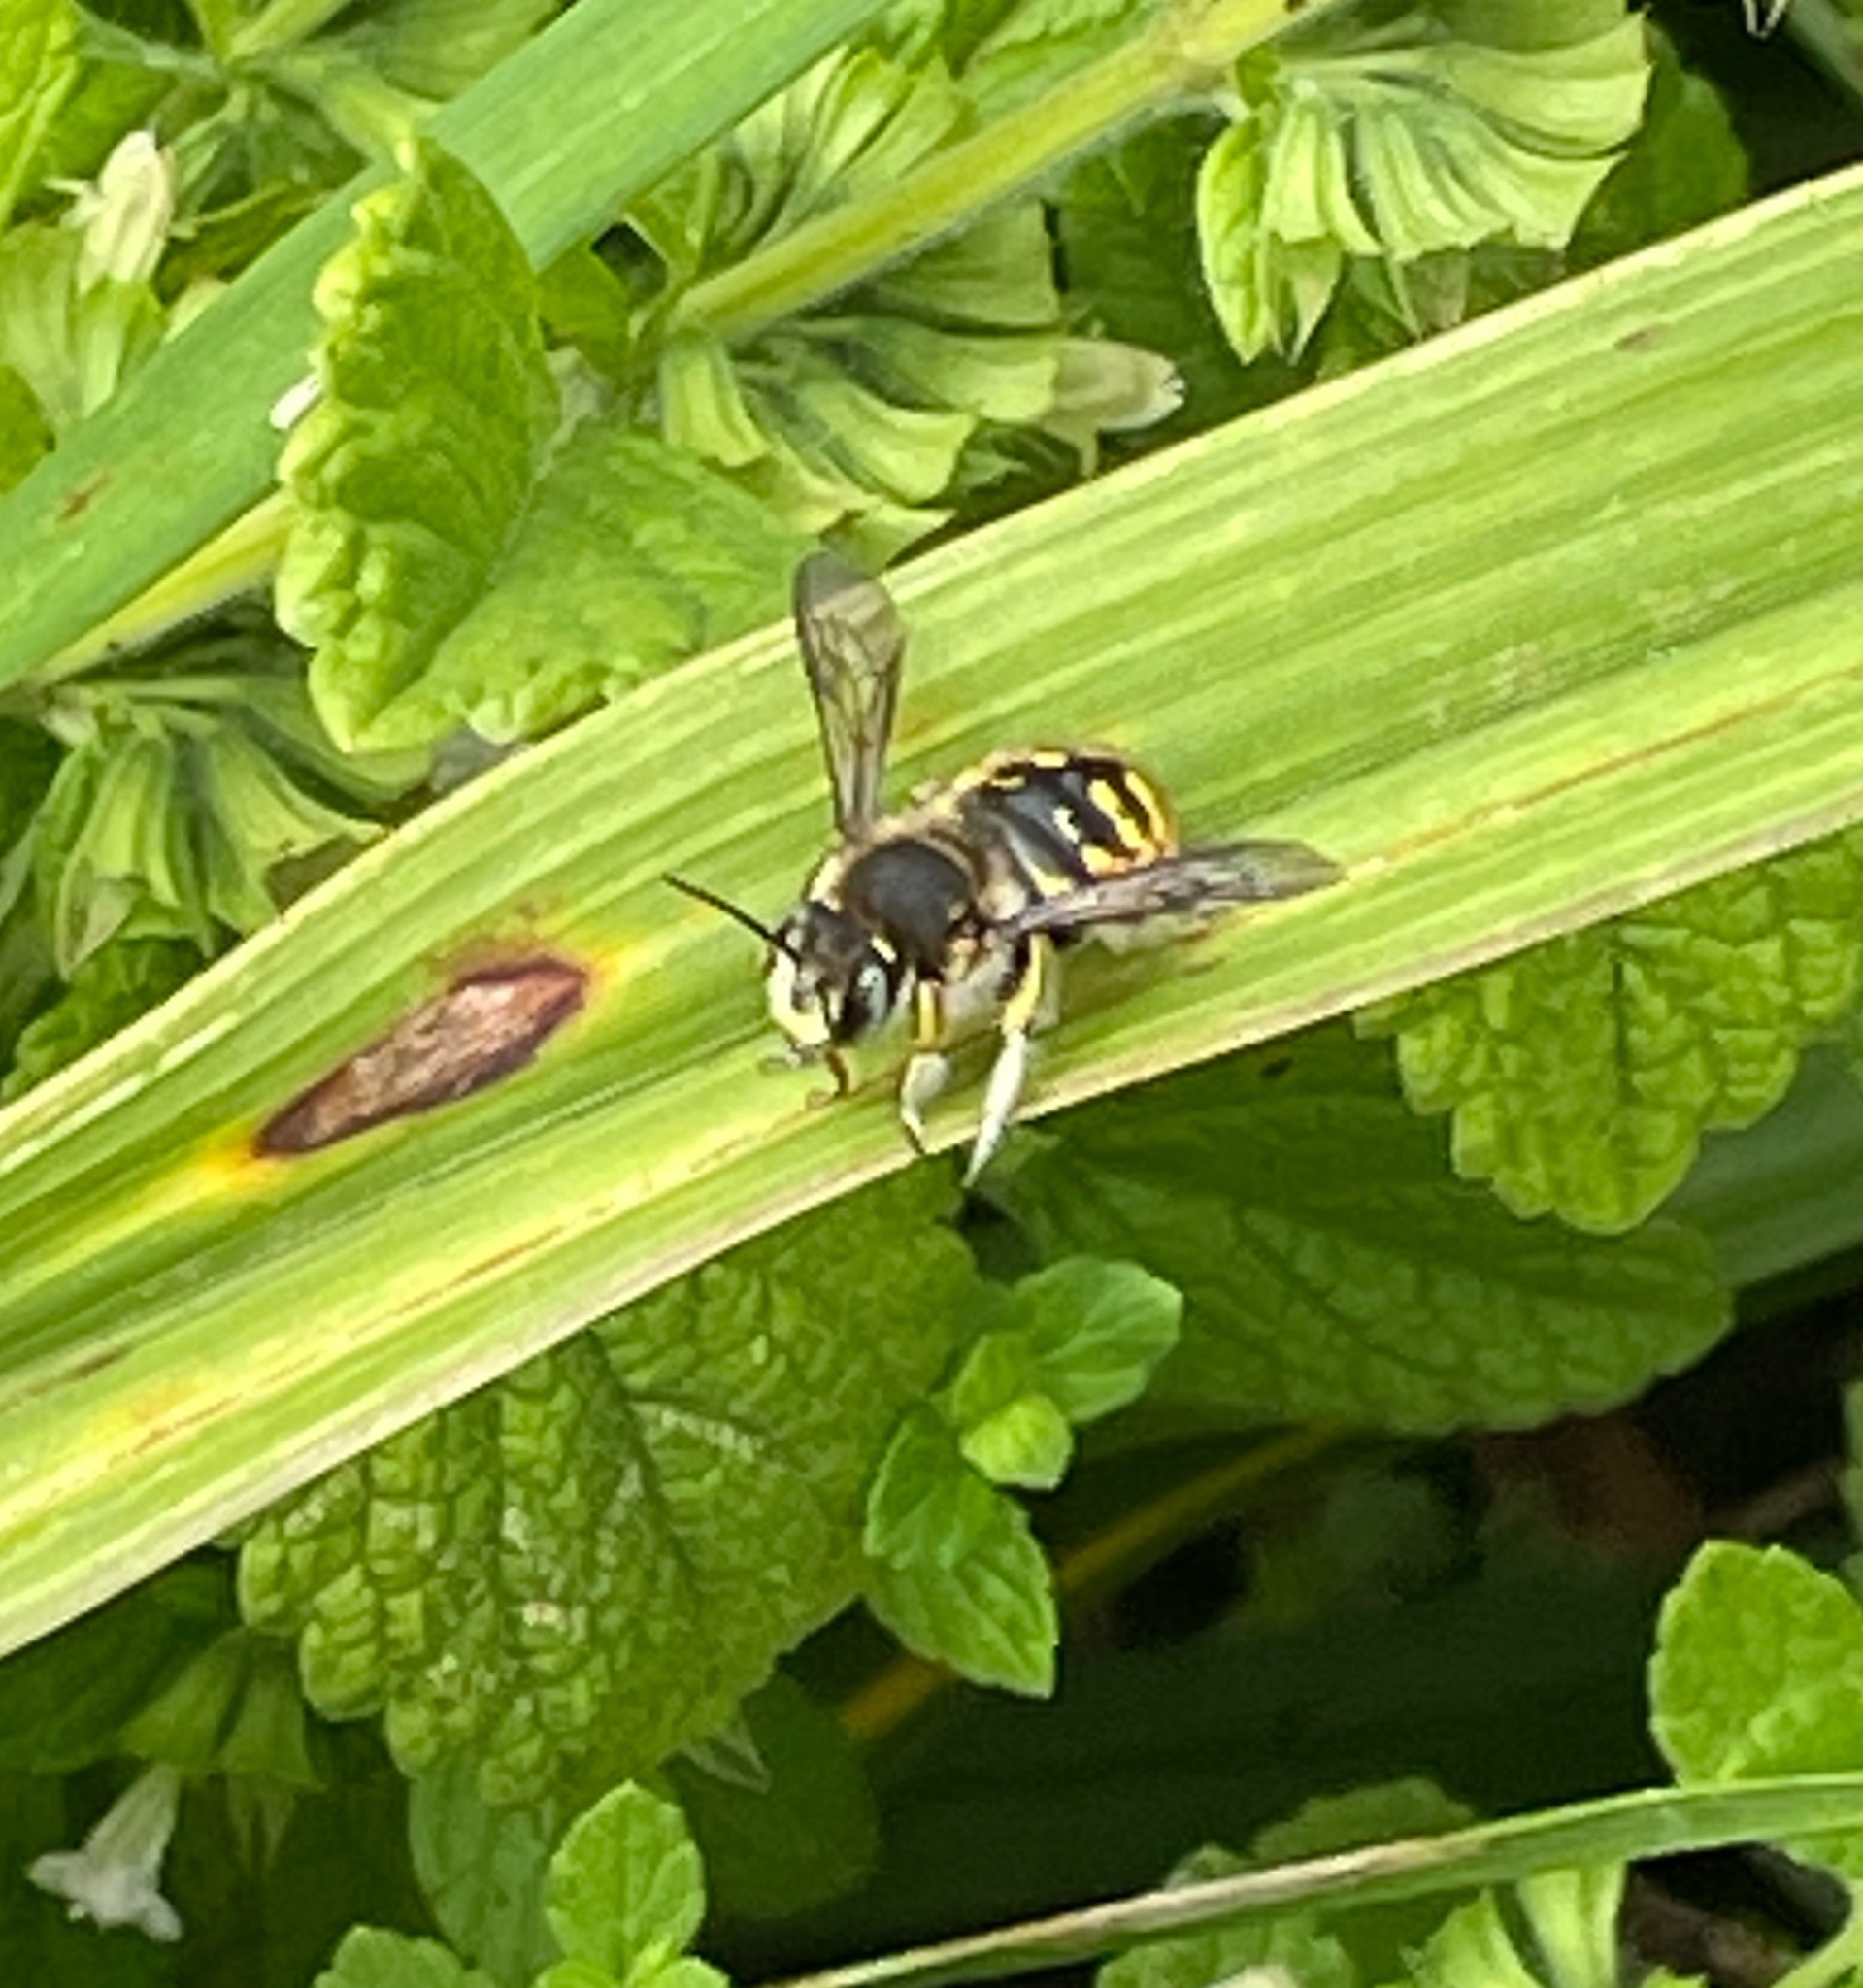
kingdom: Animalia
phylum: Arthropoda
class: Insecta
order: Hymenoptera
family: Megachilidae
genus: Anthidium
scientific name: Anthidium manicatum
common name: Wool carder bee
